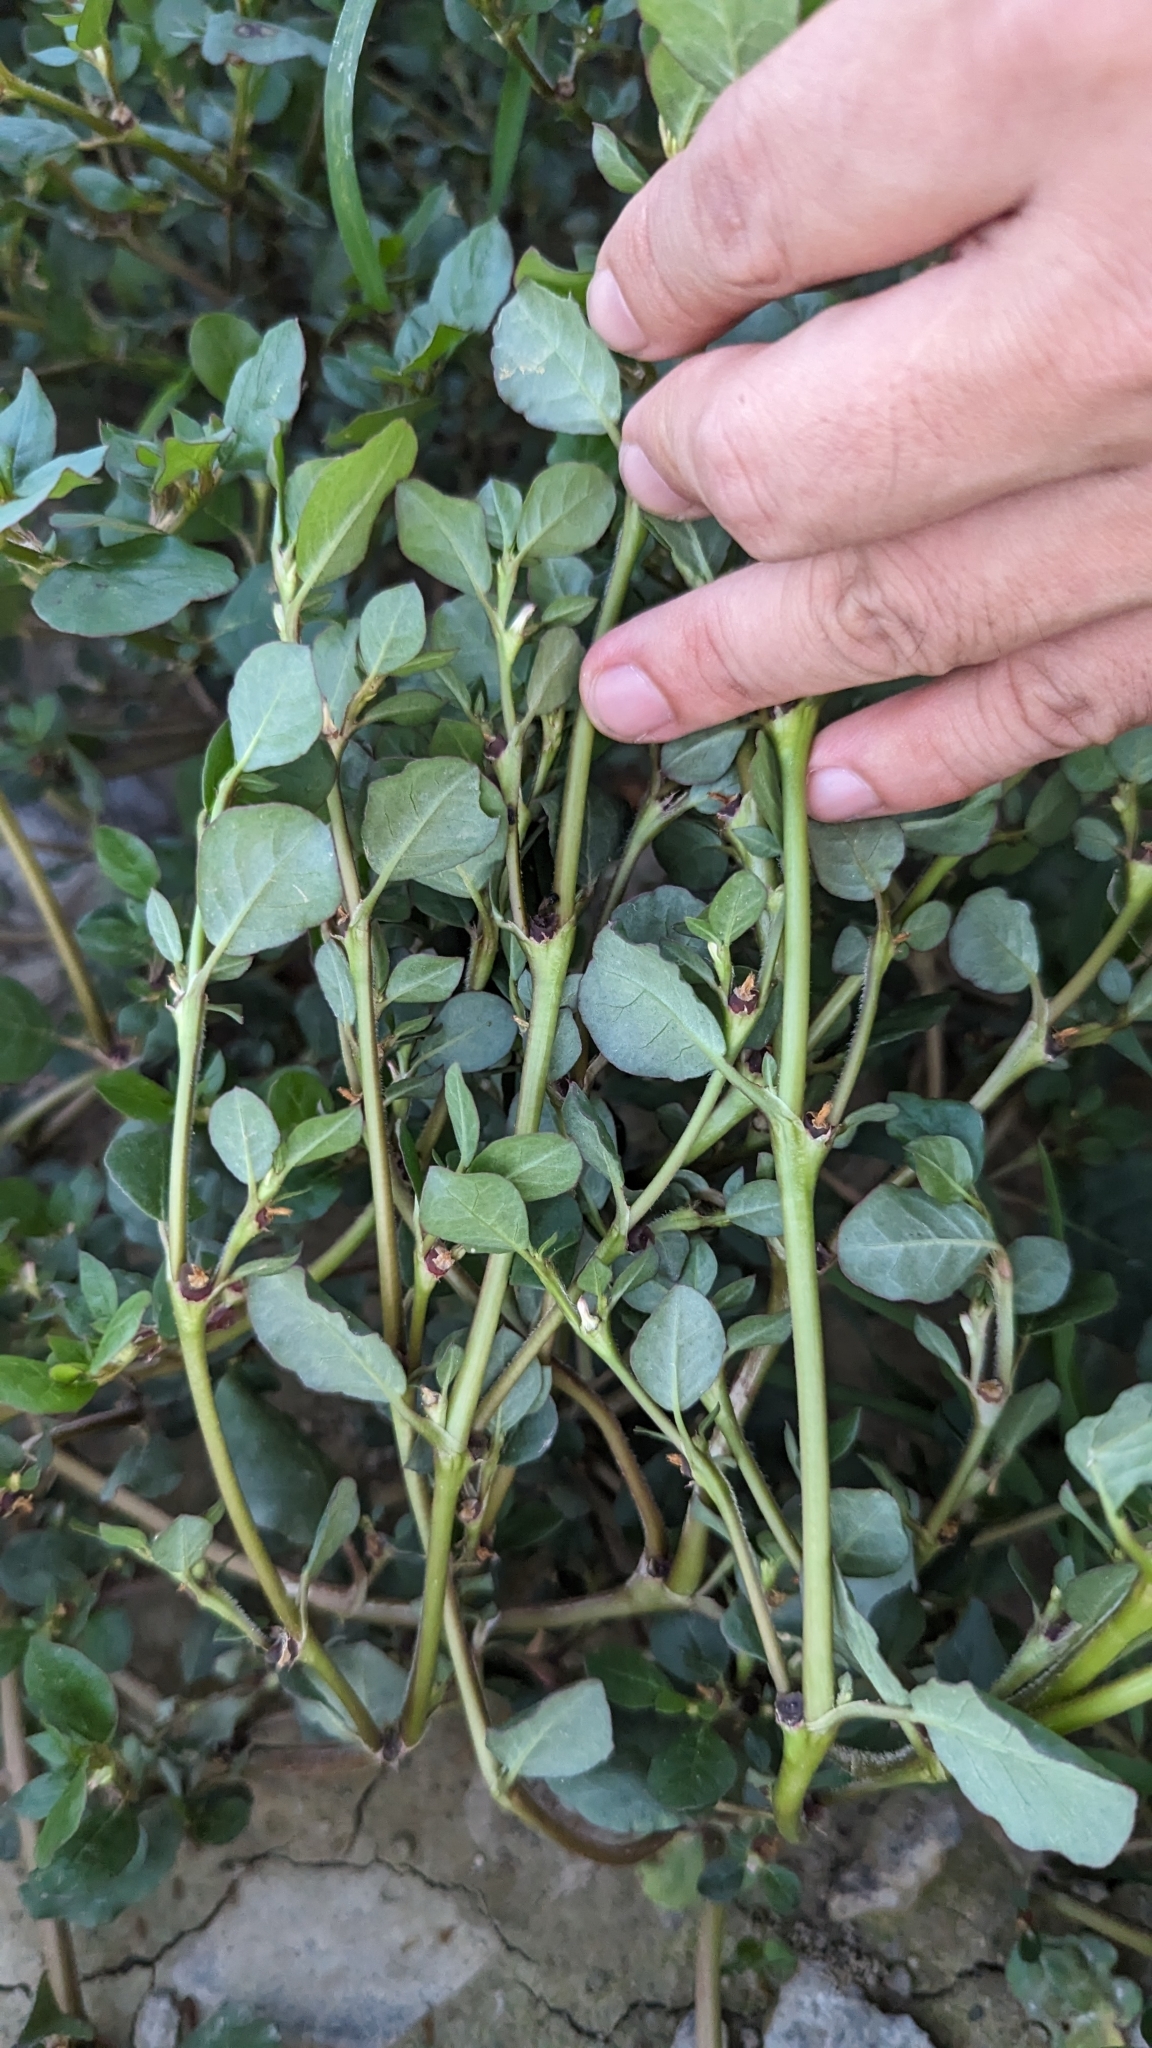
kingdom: Plantae
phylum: Tracheophyta
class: Magnoliopsida
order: Caryophyllales
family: Aizoaceae
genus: Trianthema
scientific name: Trianthema portulacastrum
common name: Desert horsepurslane
